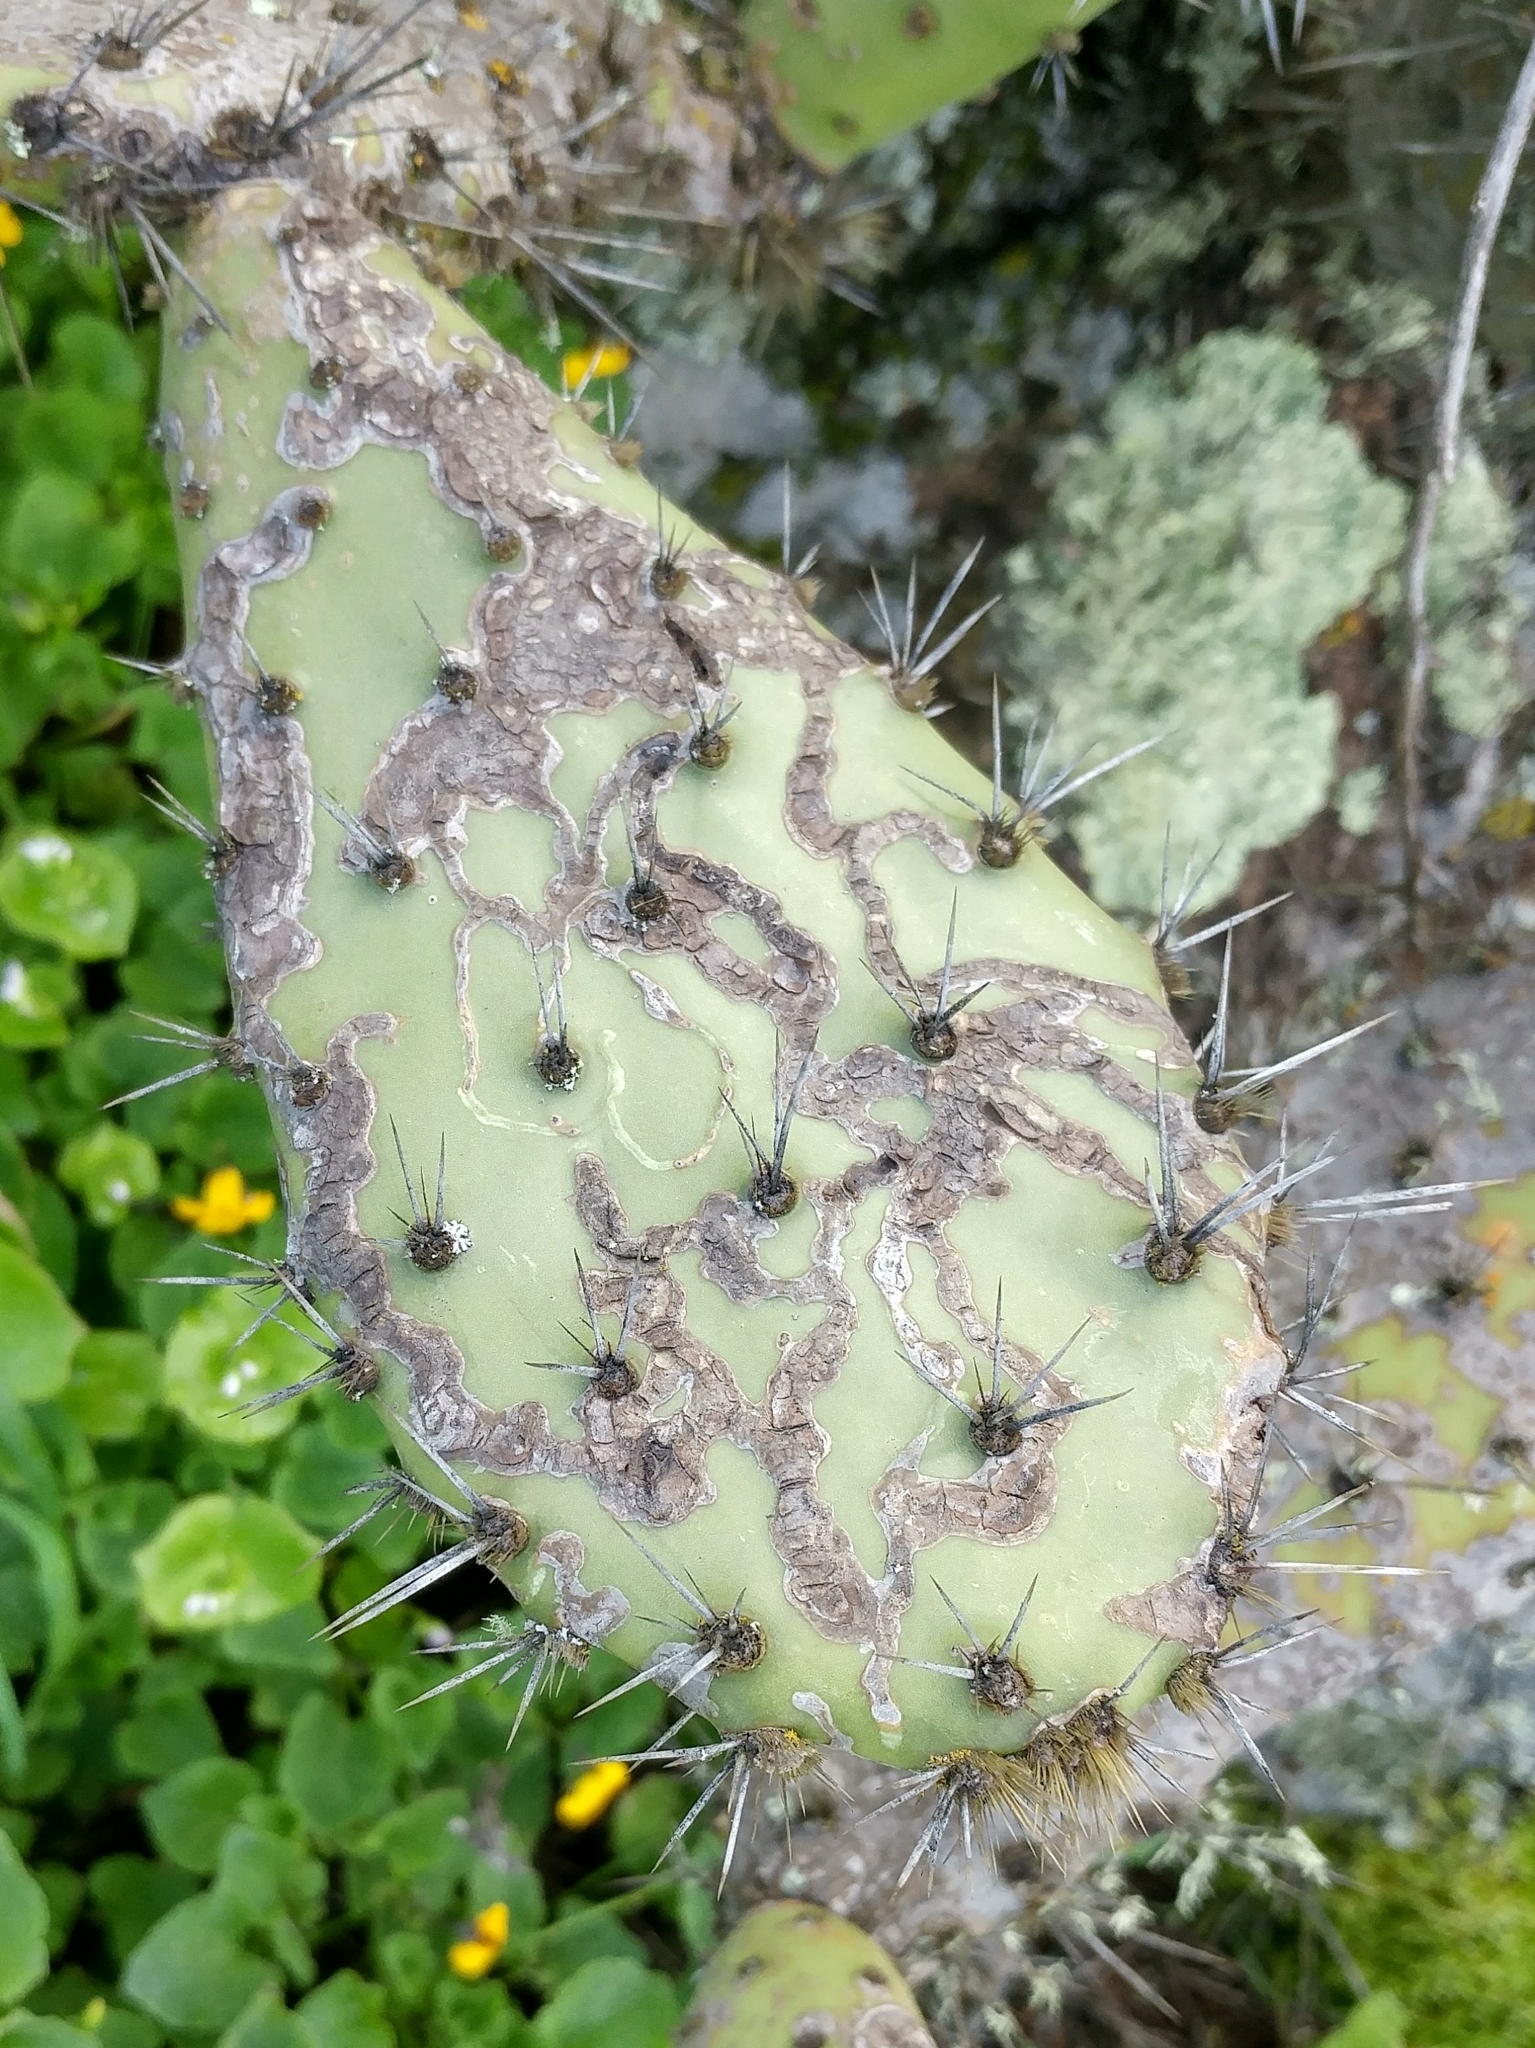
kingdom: Plantae
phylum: Tracheophyta
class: Magnoliopsida
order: Caryophyllales
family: Cactaceae
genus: Opuntia
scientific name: Opuntia littoralis
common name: Coastal prickly-pear
